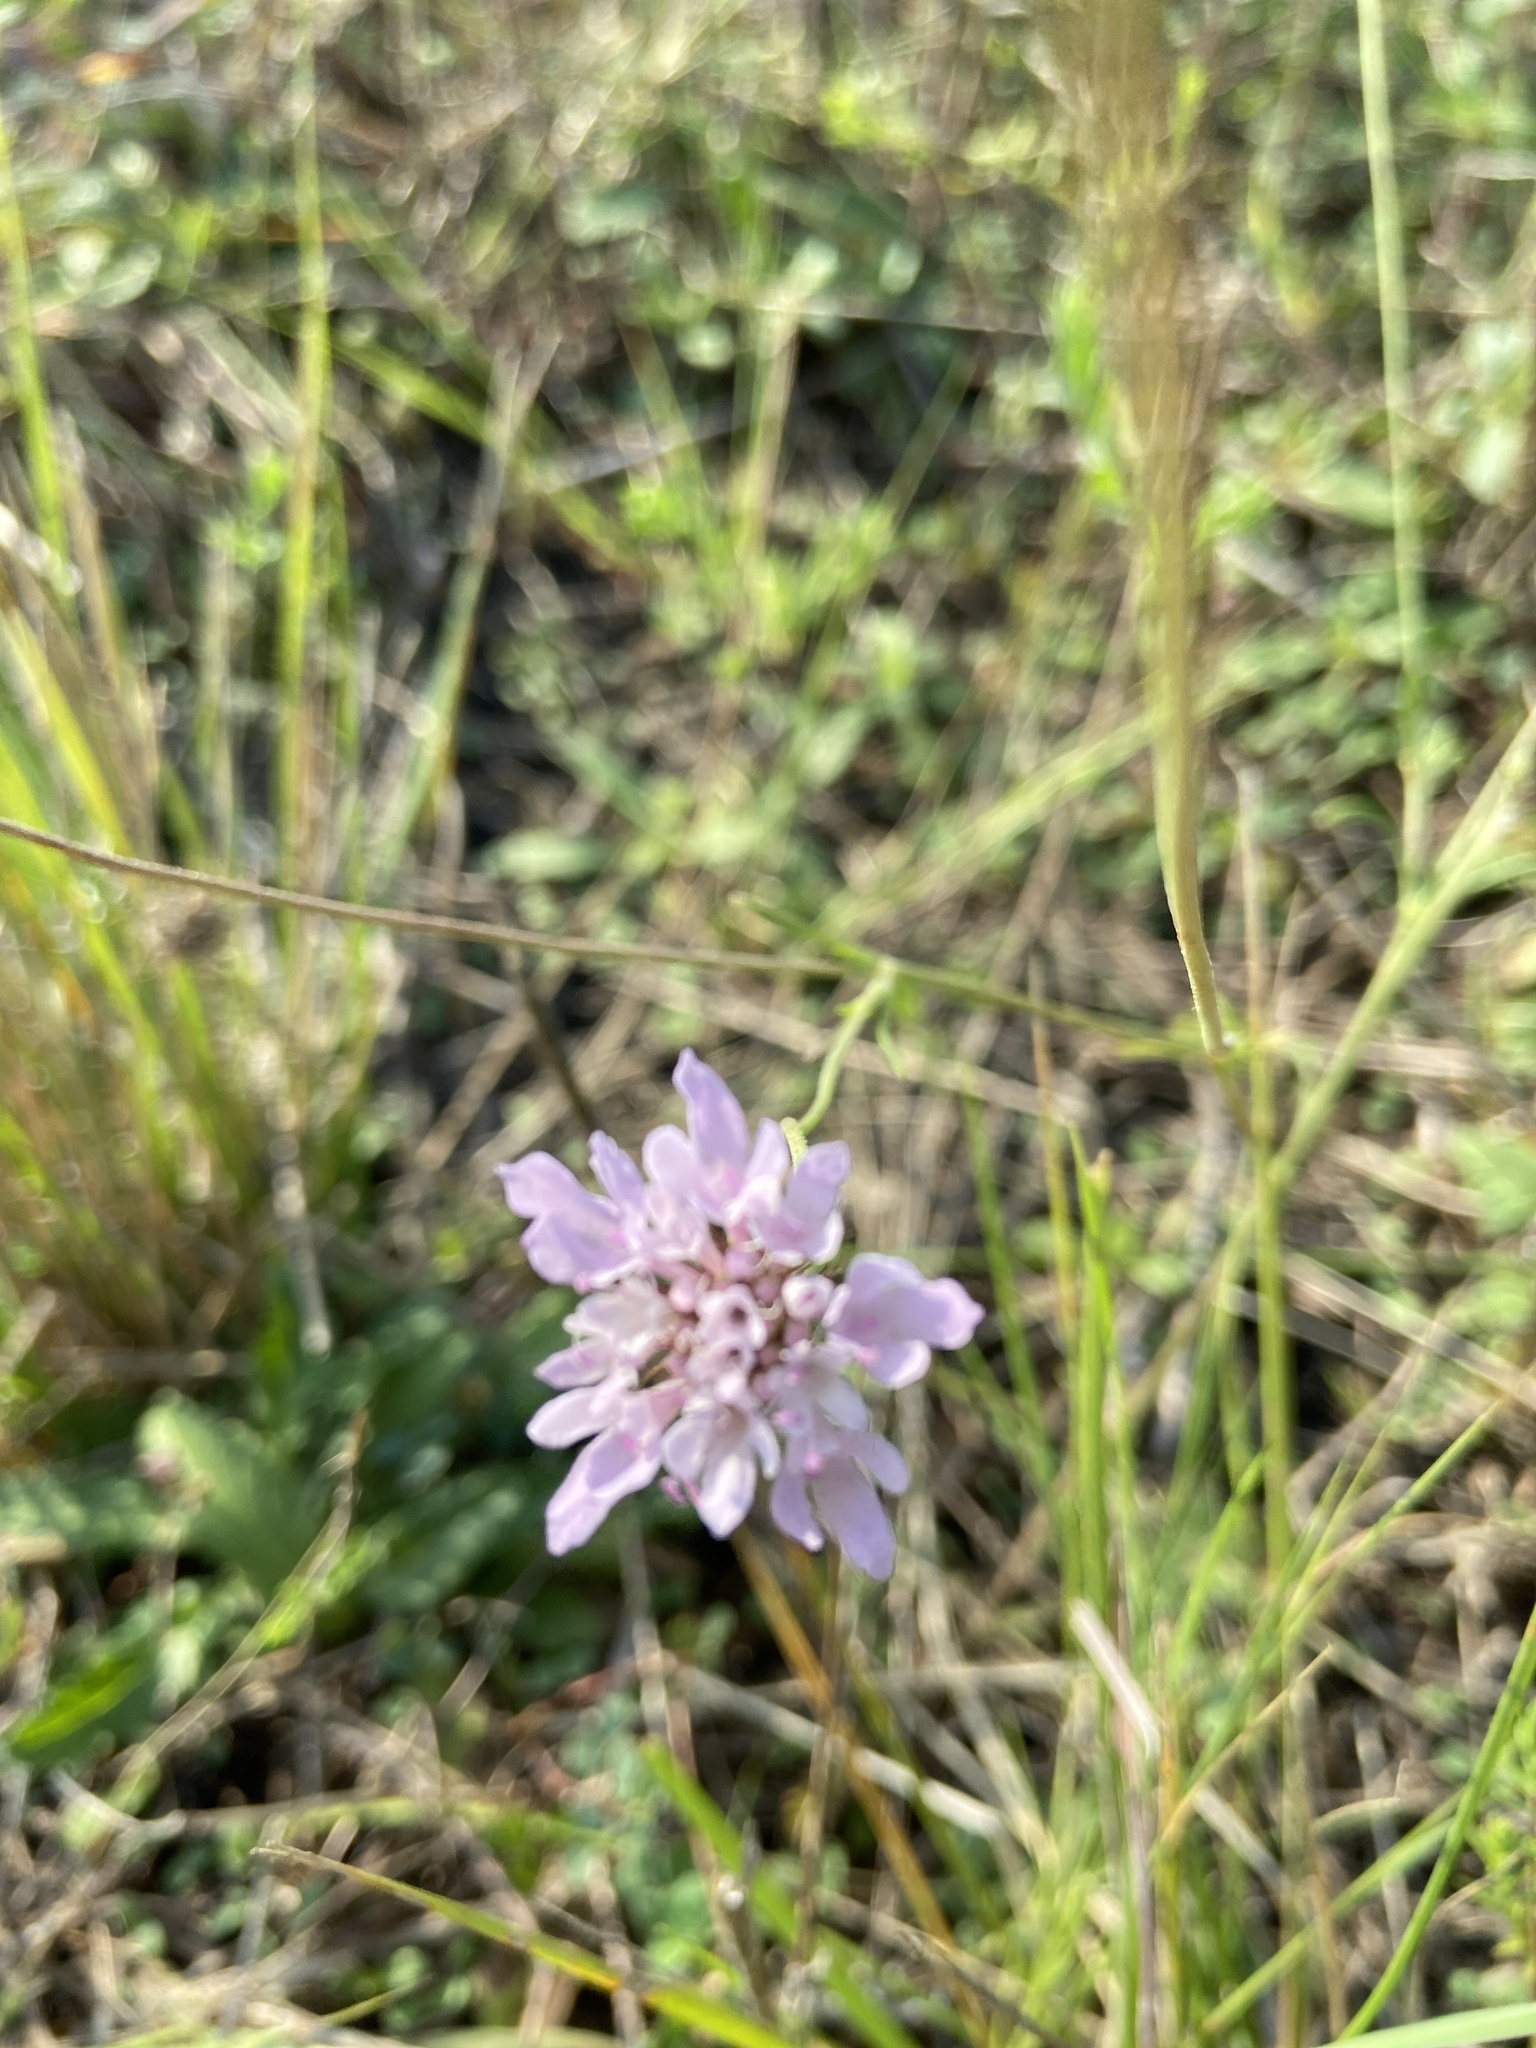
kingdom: Plantae
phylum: Tracheophyta
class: Magnoliopsida
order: Dipsacales
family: Caprifoliaceae
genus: Sixalix
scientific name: Sixalix atropurpurea
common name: Sweet scabious
